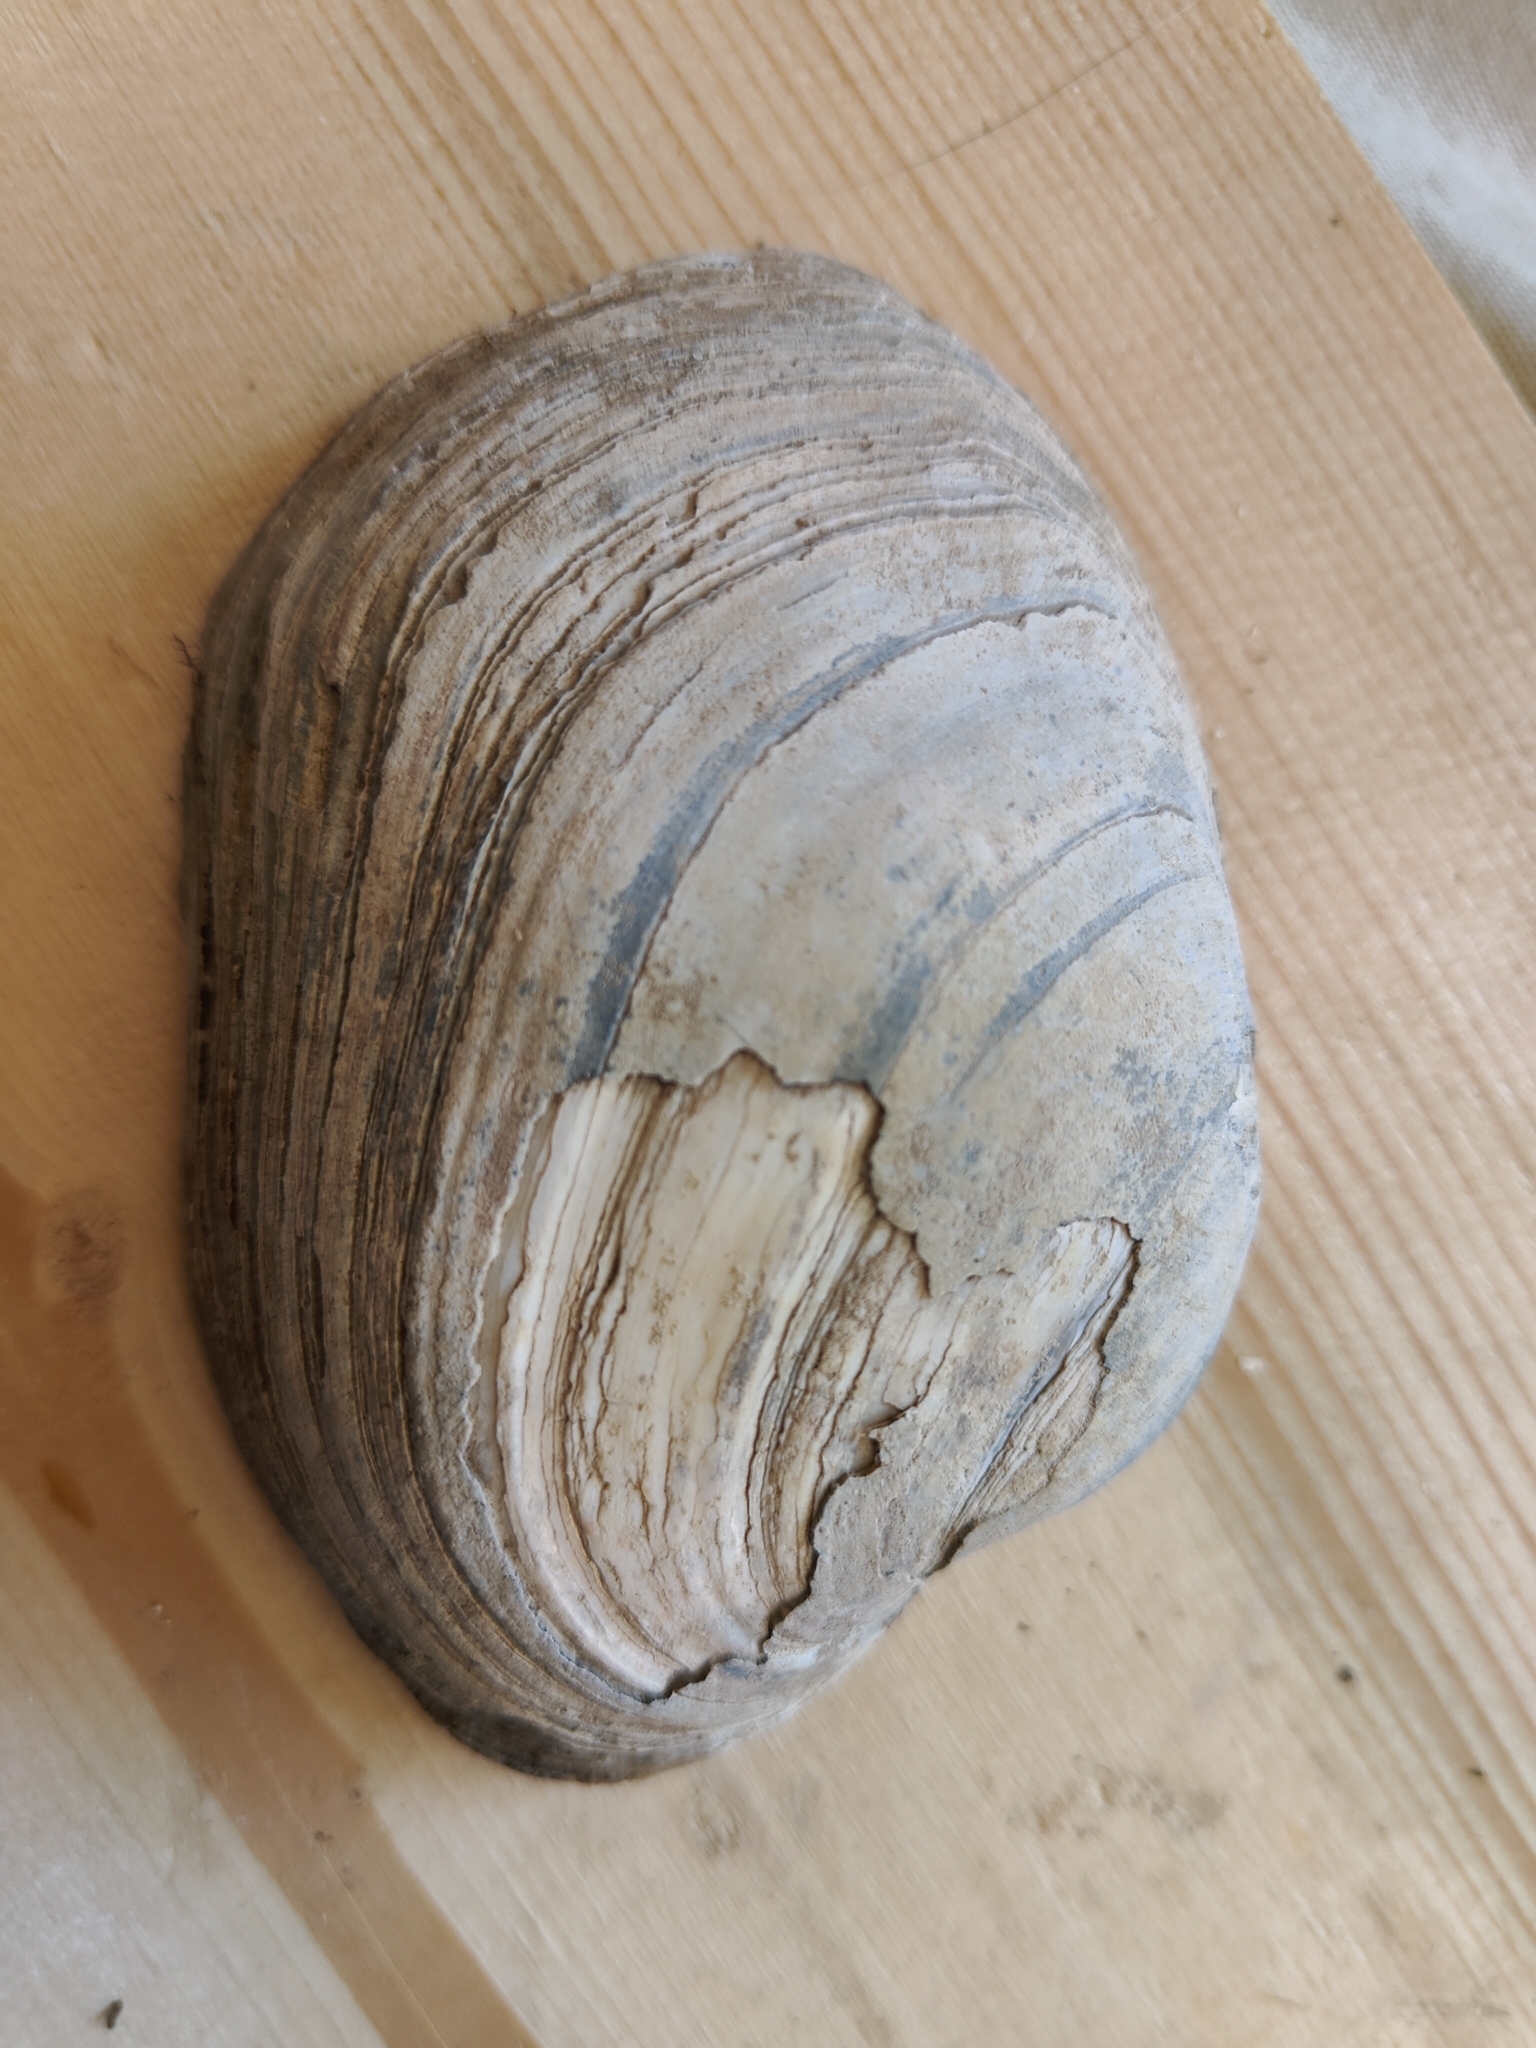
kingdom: Animalia
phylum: Mollusca
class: Bivalvia
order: Unionida
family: Unionidae
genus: Lampsilis
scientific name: Lampsilis cardium
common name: Plain pocketbook
